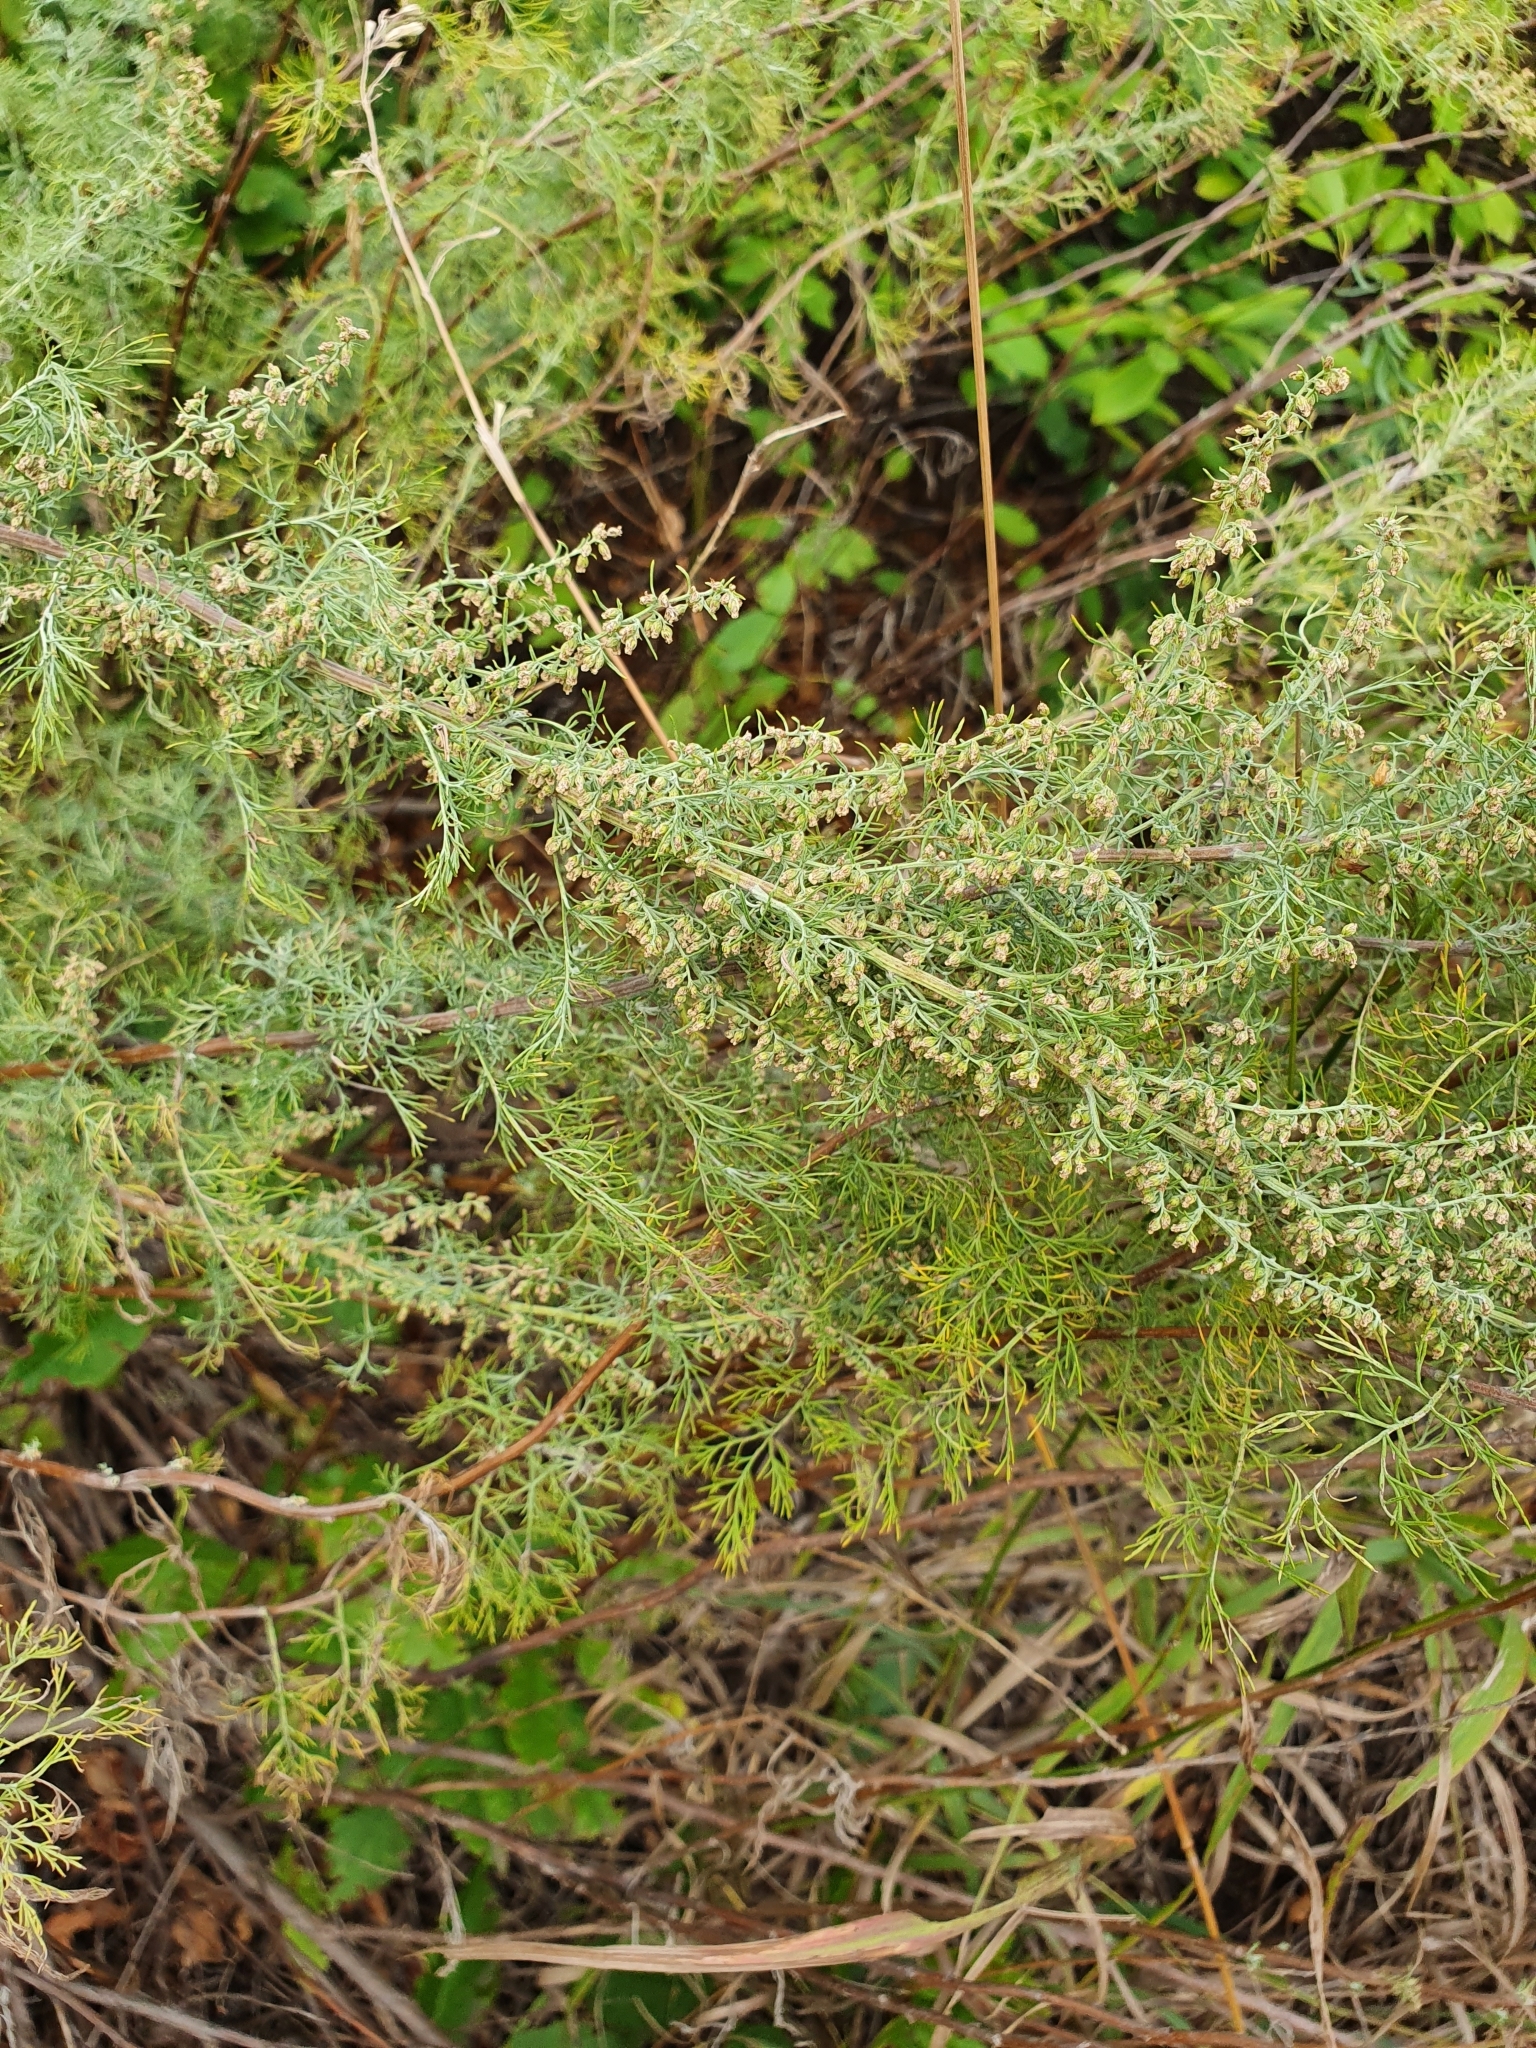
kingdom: Plantae
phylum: Tracheophyta
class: Magnoliopsida
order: Asterales
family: Asteraceae
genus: Artemisia
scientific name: Artemisia abrotanum
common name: Southernwood
